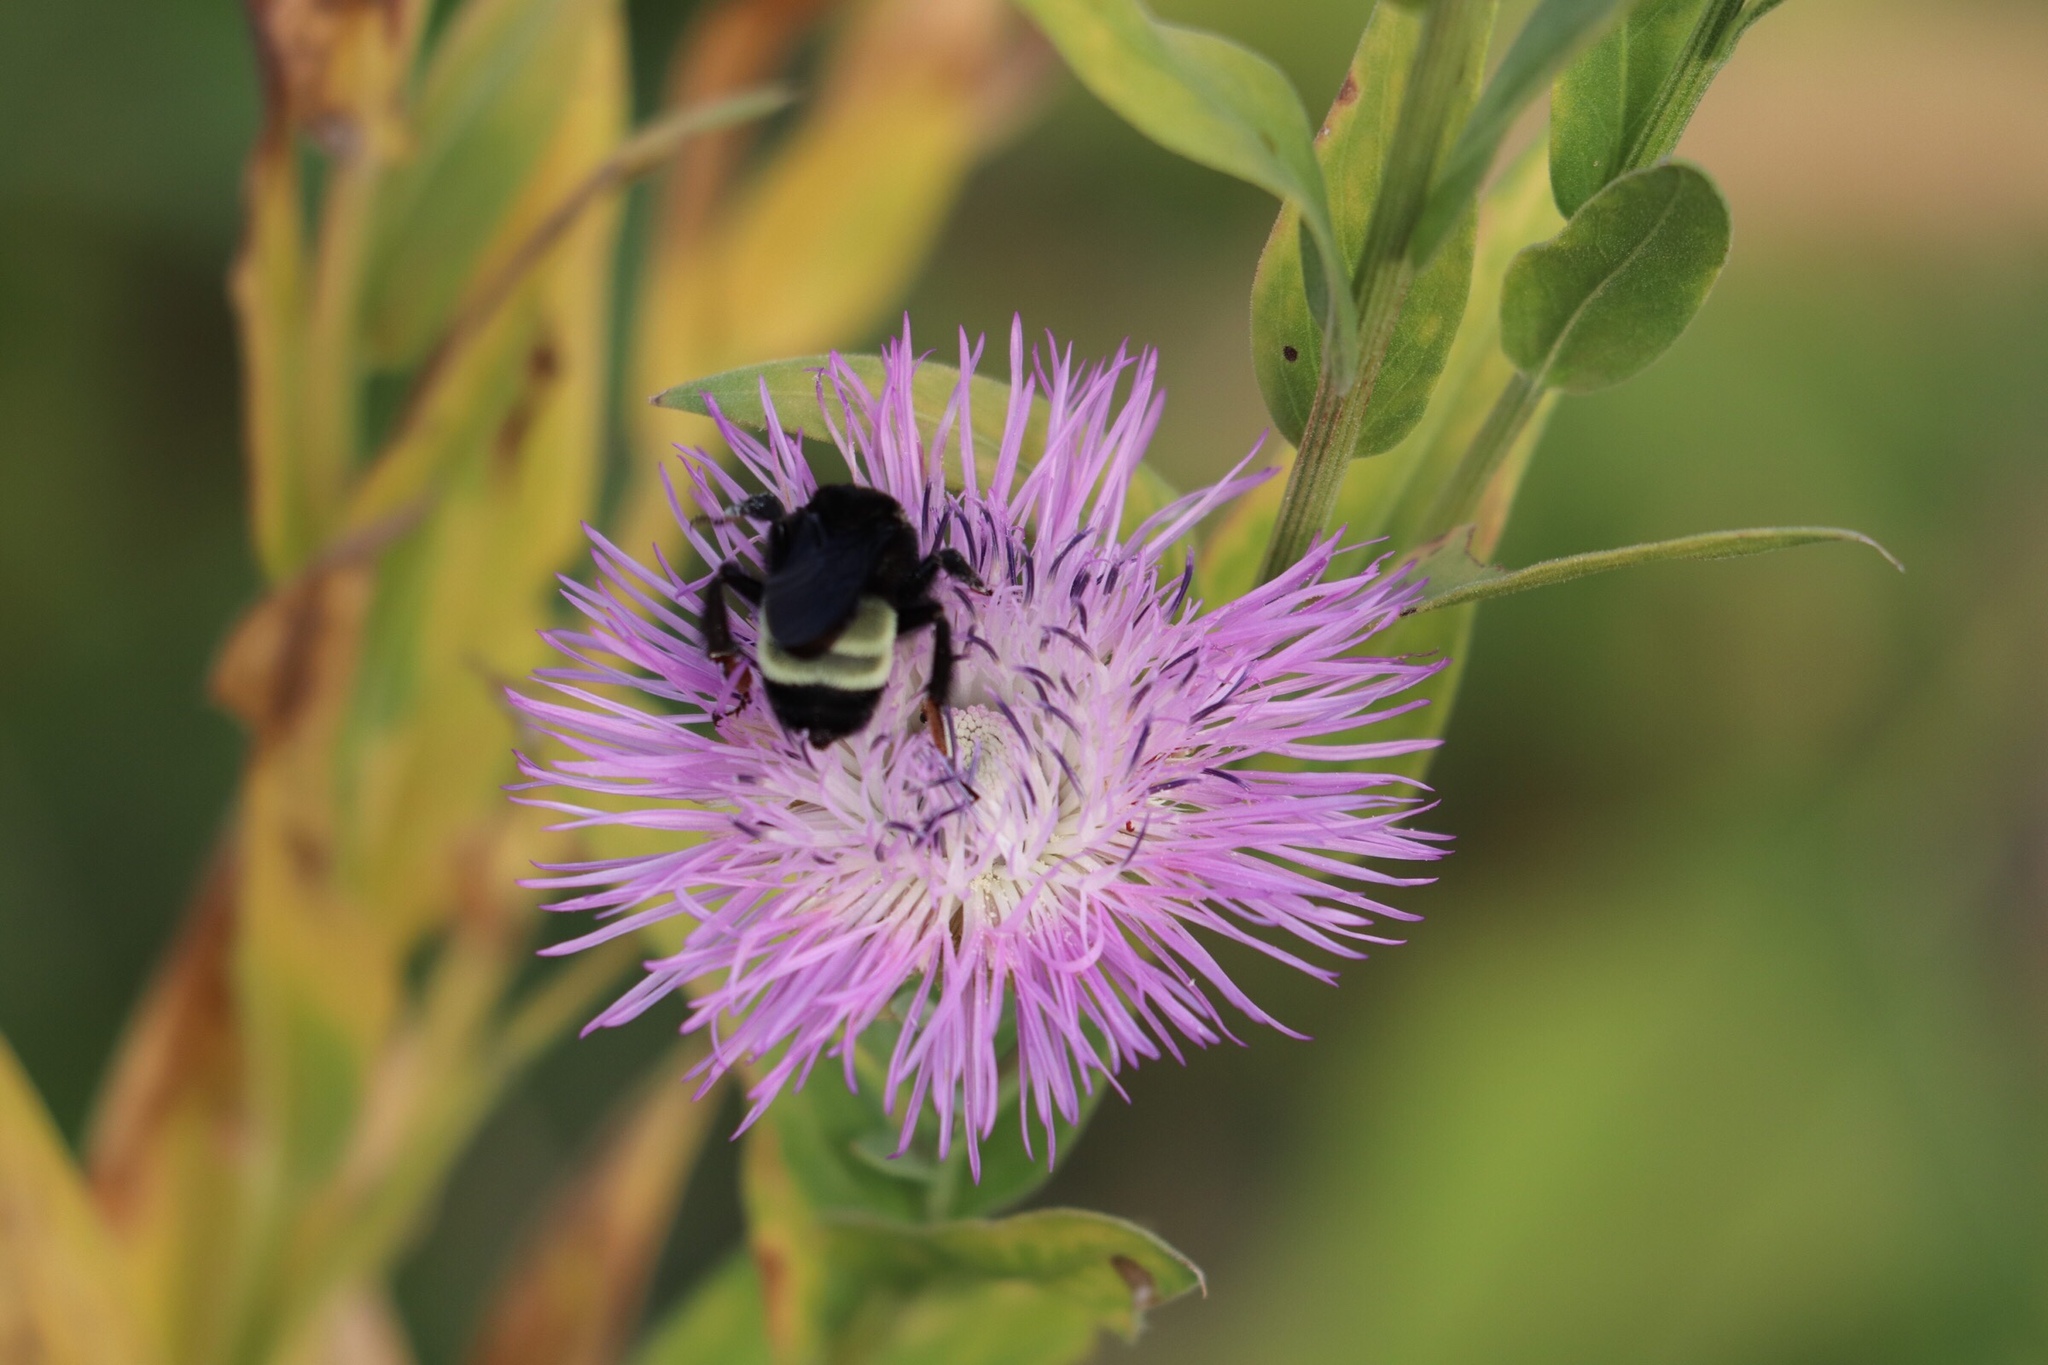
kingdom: Plantae
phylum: Tracheophyta
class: Magnoliopsida
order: Asterales
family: Asteraceae
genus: Plectocephalus
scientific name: Plectocephalus americanus
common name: American basket-flower
